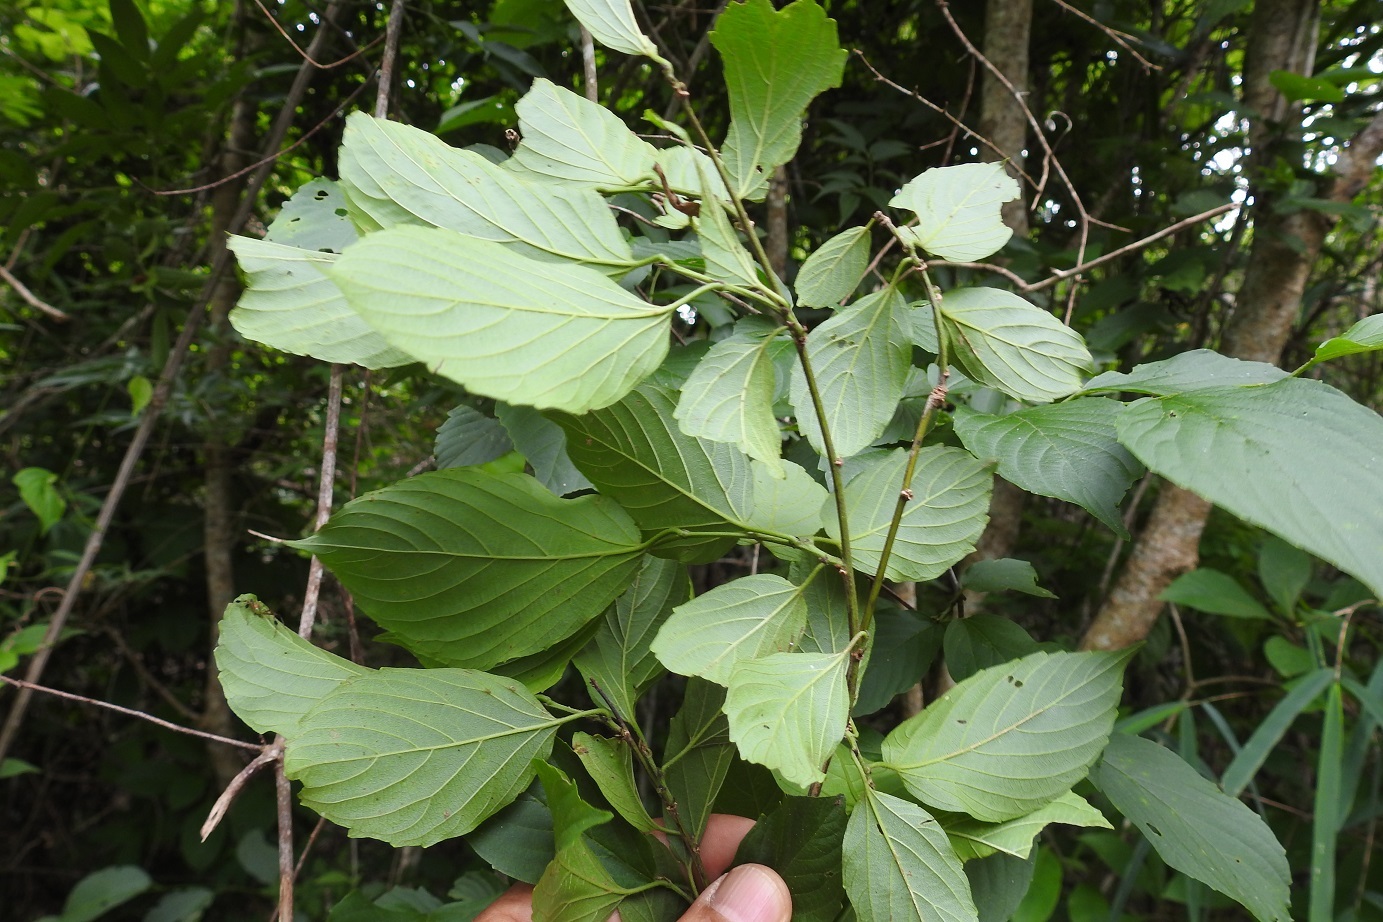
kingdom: Plantae
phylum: Tracheophyta
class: Magnoliopsida
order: Rosales
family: Rhamnaceae
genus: Gouania
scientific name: Gouania lupuloides
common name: Chewstick
